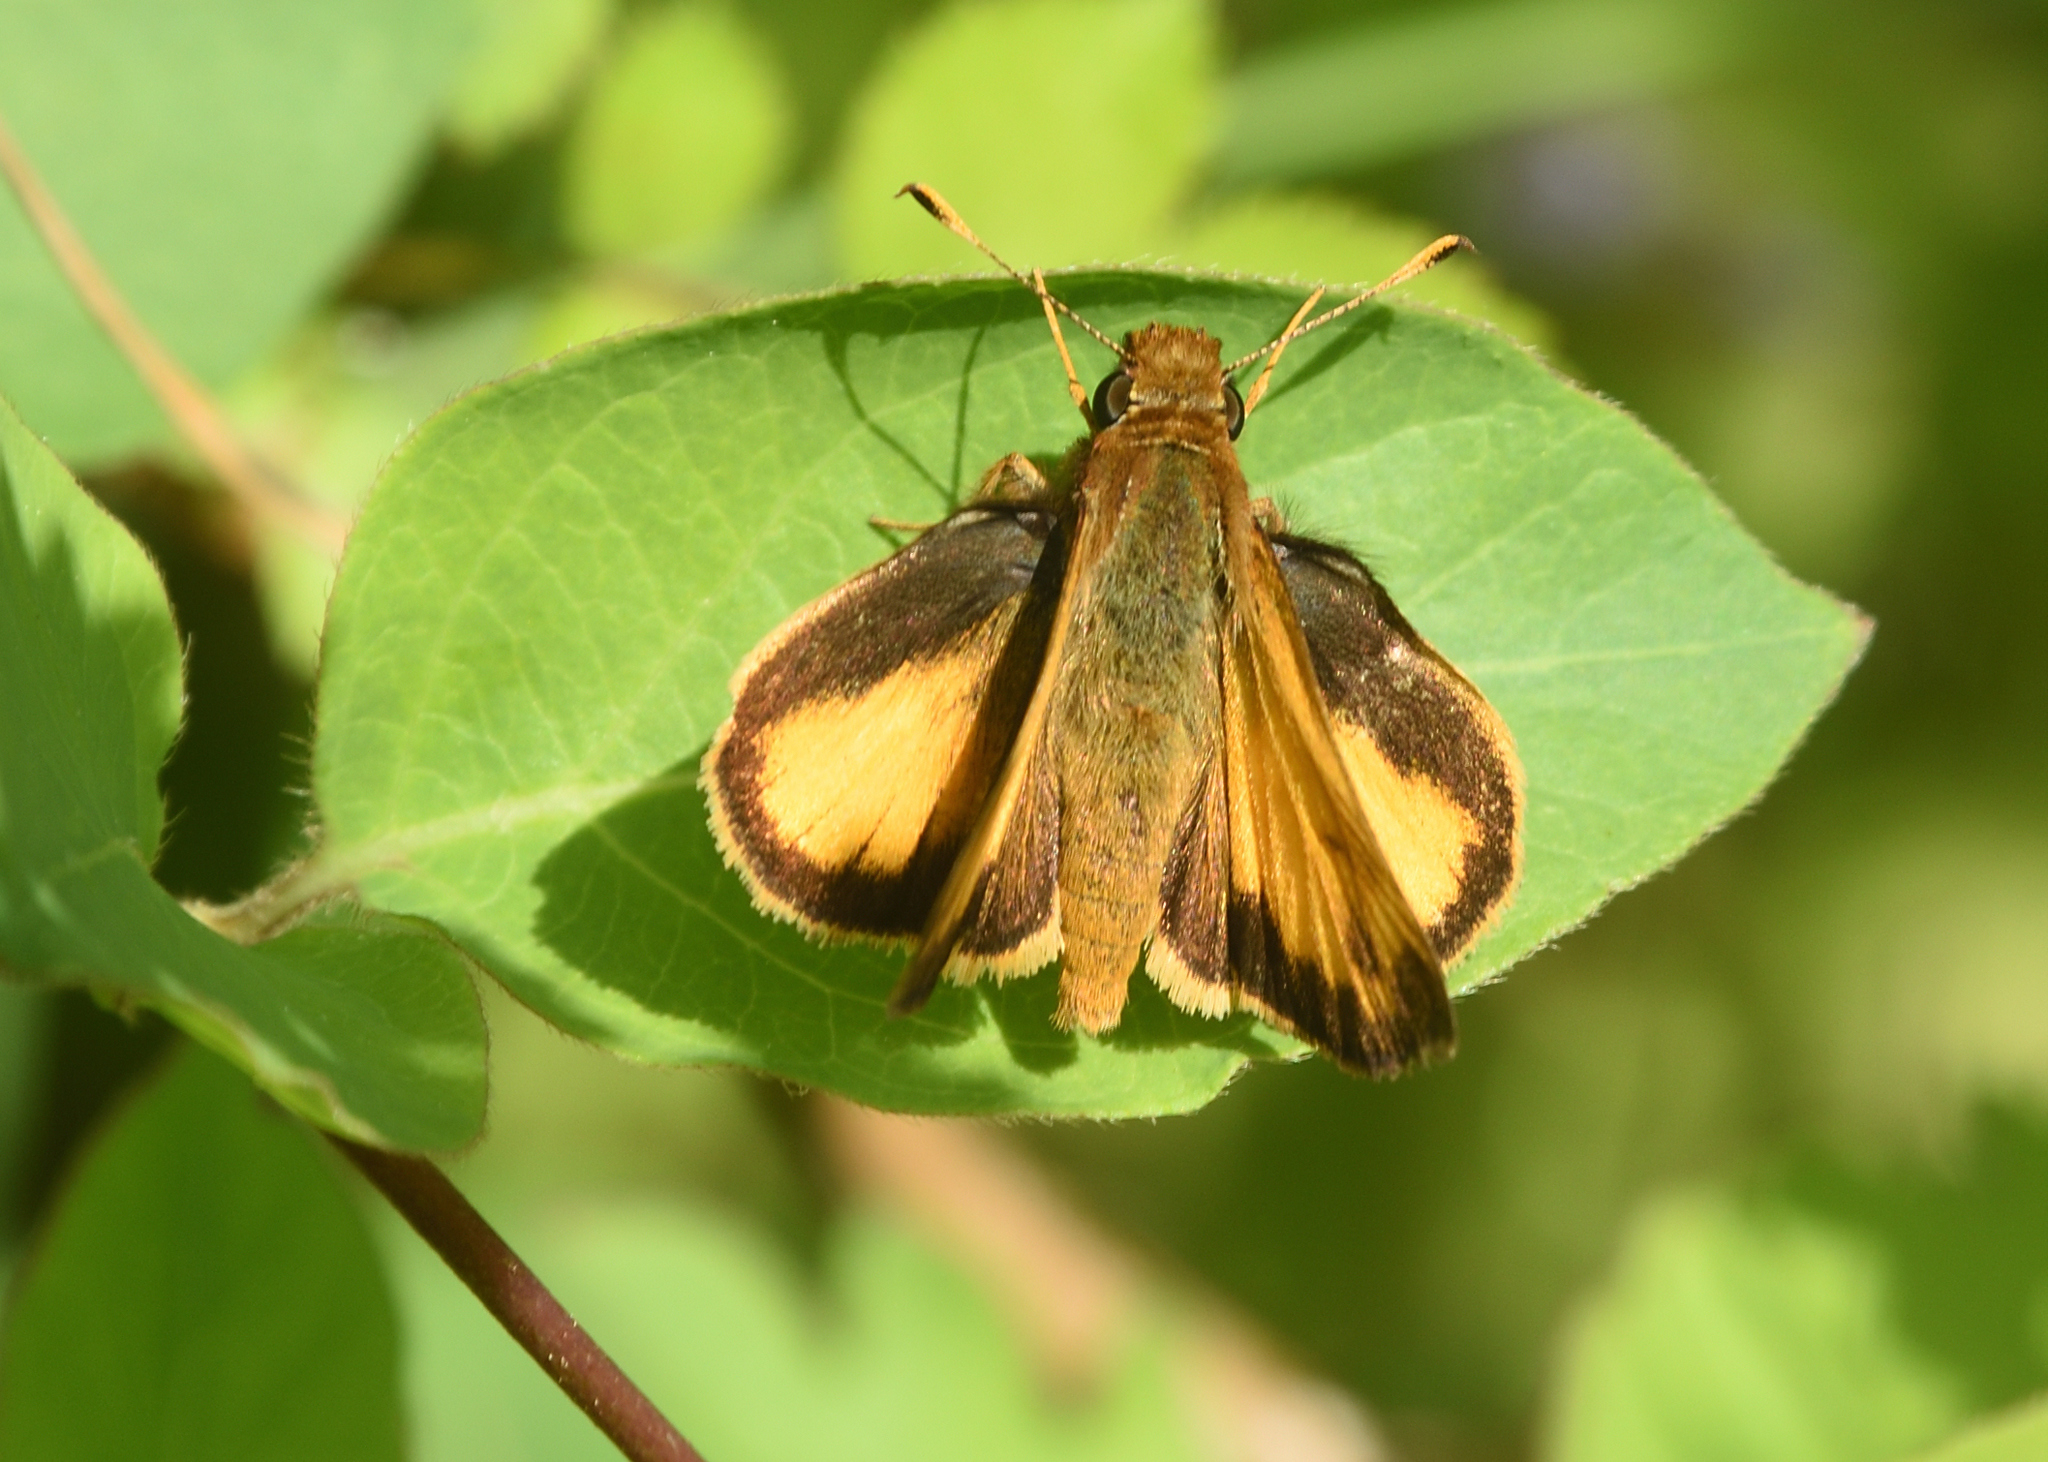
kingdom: Animalia
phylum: Arthropoda
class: Insecta
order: Lepidoptera
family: Hesperiidae
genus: Lon
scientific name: Lon zabulon
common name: Zabulon skipper
